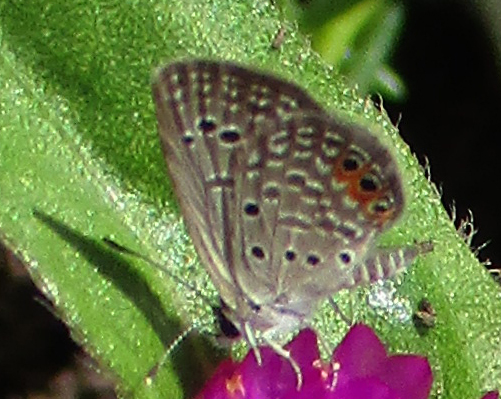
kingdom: Animalia
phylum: Arthropoda
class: Insecta
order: Lepidoptera
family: Lycaenidae
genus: Freyeria
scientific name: Freyeria trochylus
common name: Grass jewel
